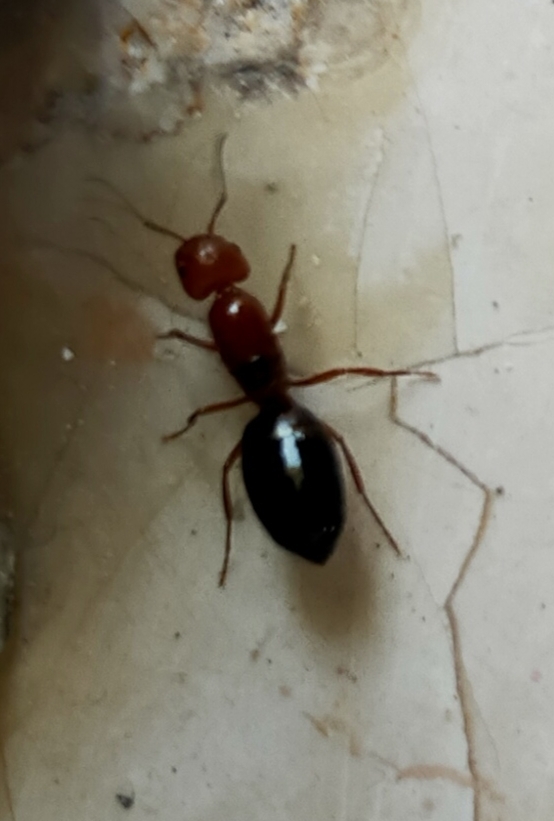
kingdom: Animalia
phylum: Arthropoda
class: Insecta
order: Hymenoptera
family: Formicidae
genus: Myrmentoma
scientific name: Myrmentoma
